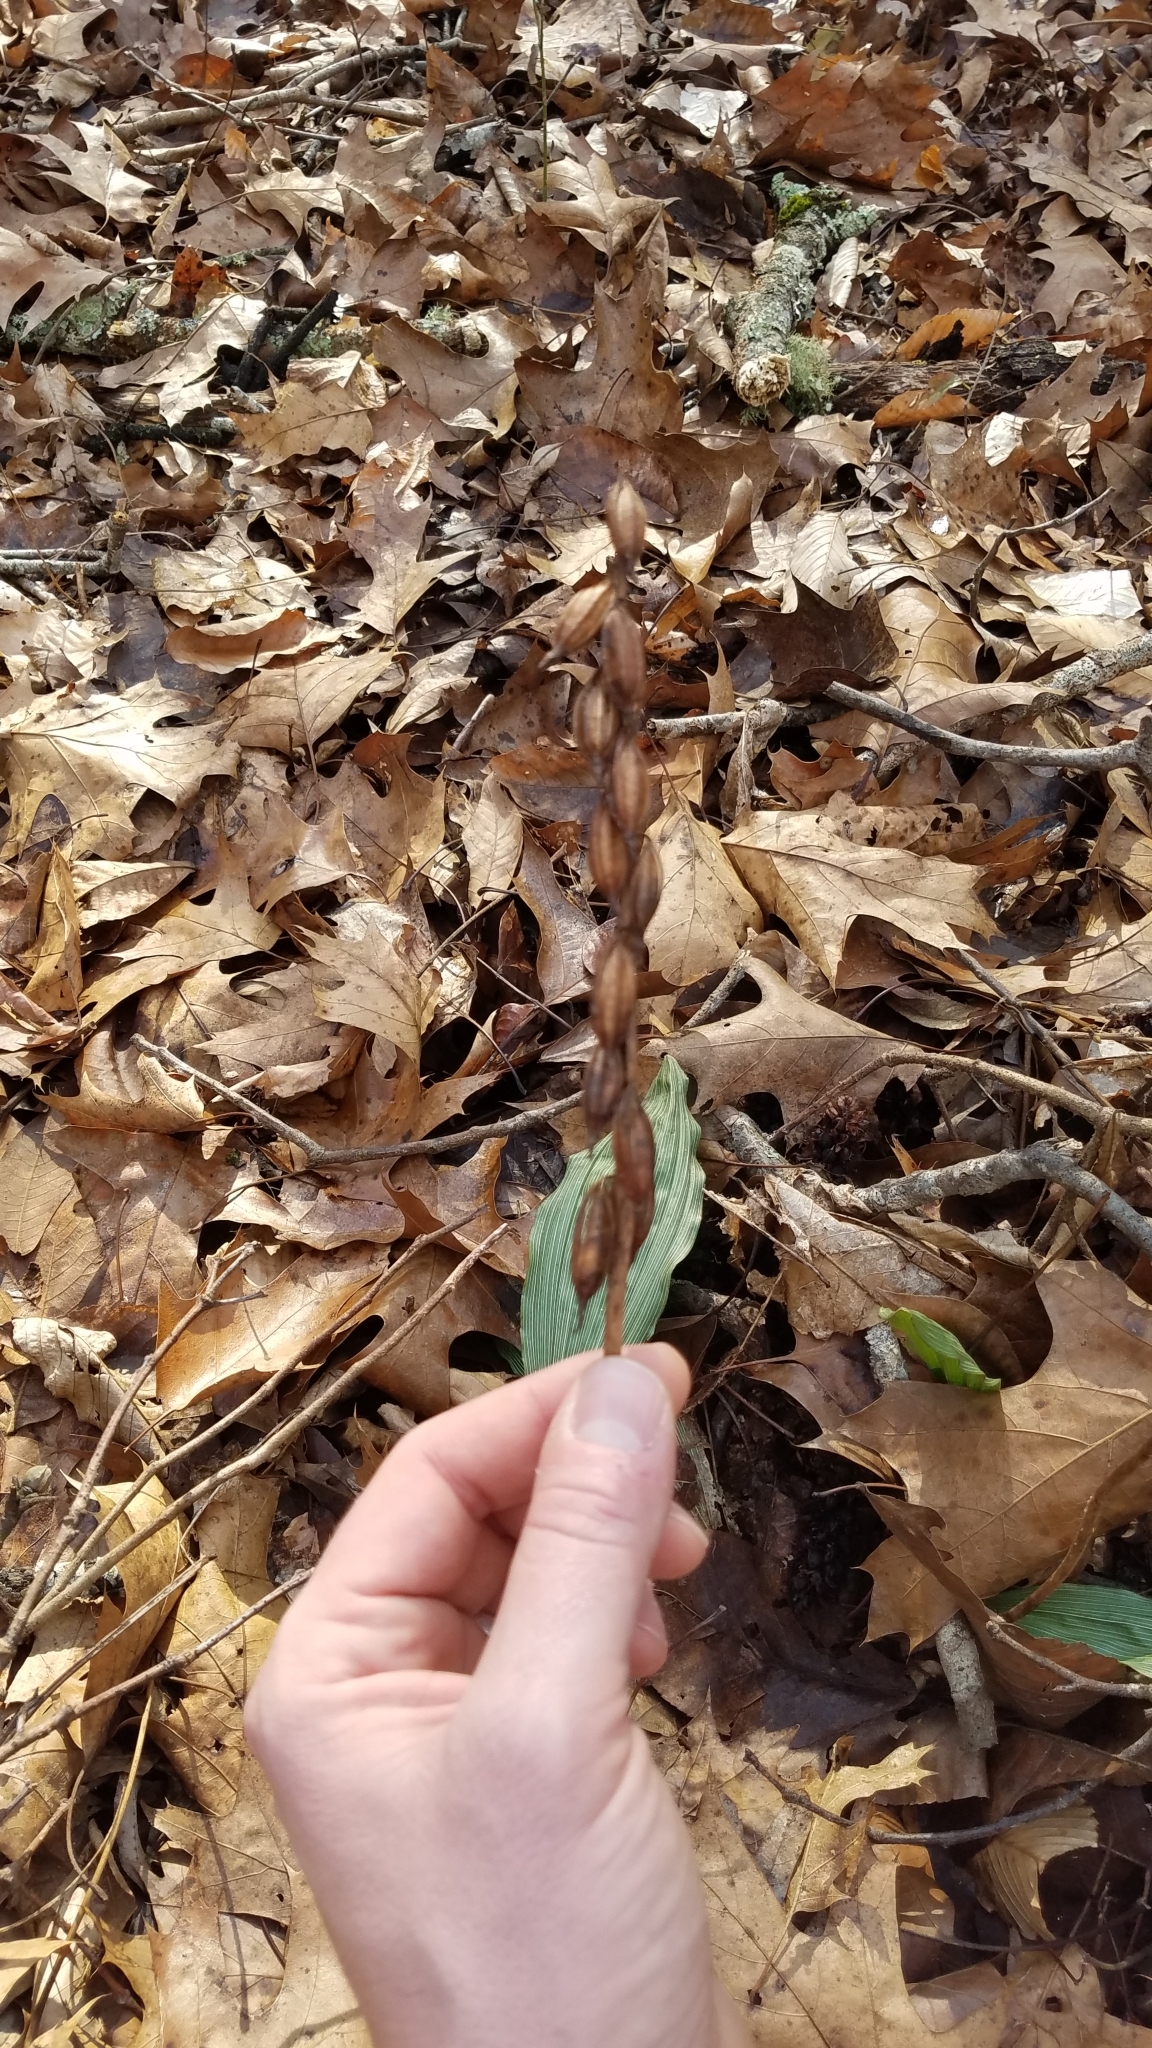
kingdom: Plantae
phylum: Tracheophyta
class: Liliopsida
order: Asparagales
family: Orchidaceae
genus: Aplectrum
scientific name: Aplectrum hyemale
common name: Adam-and-eve
